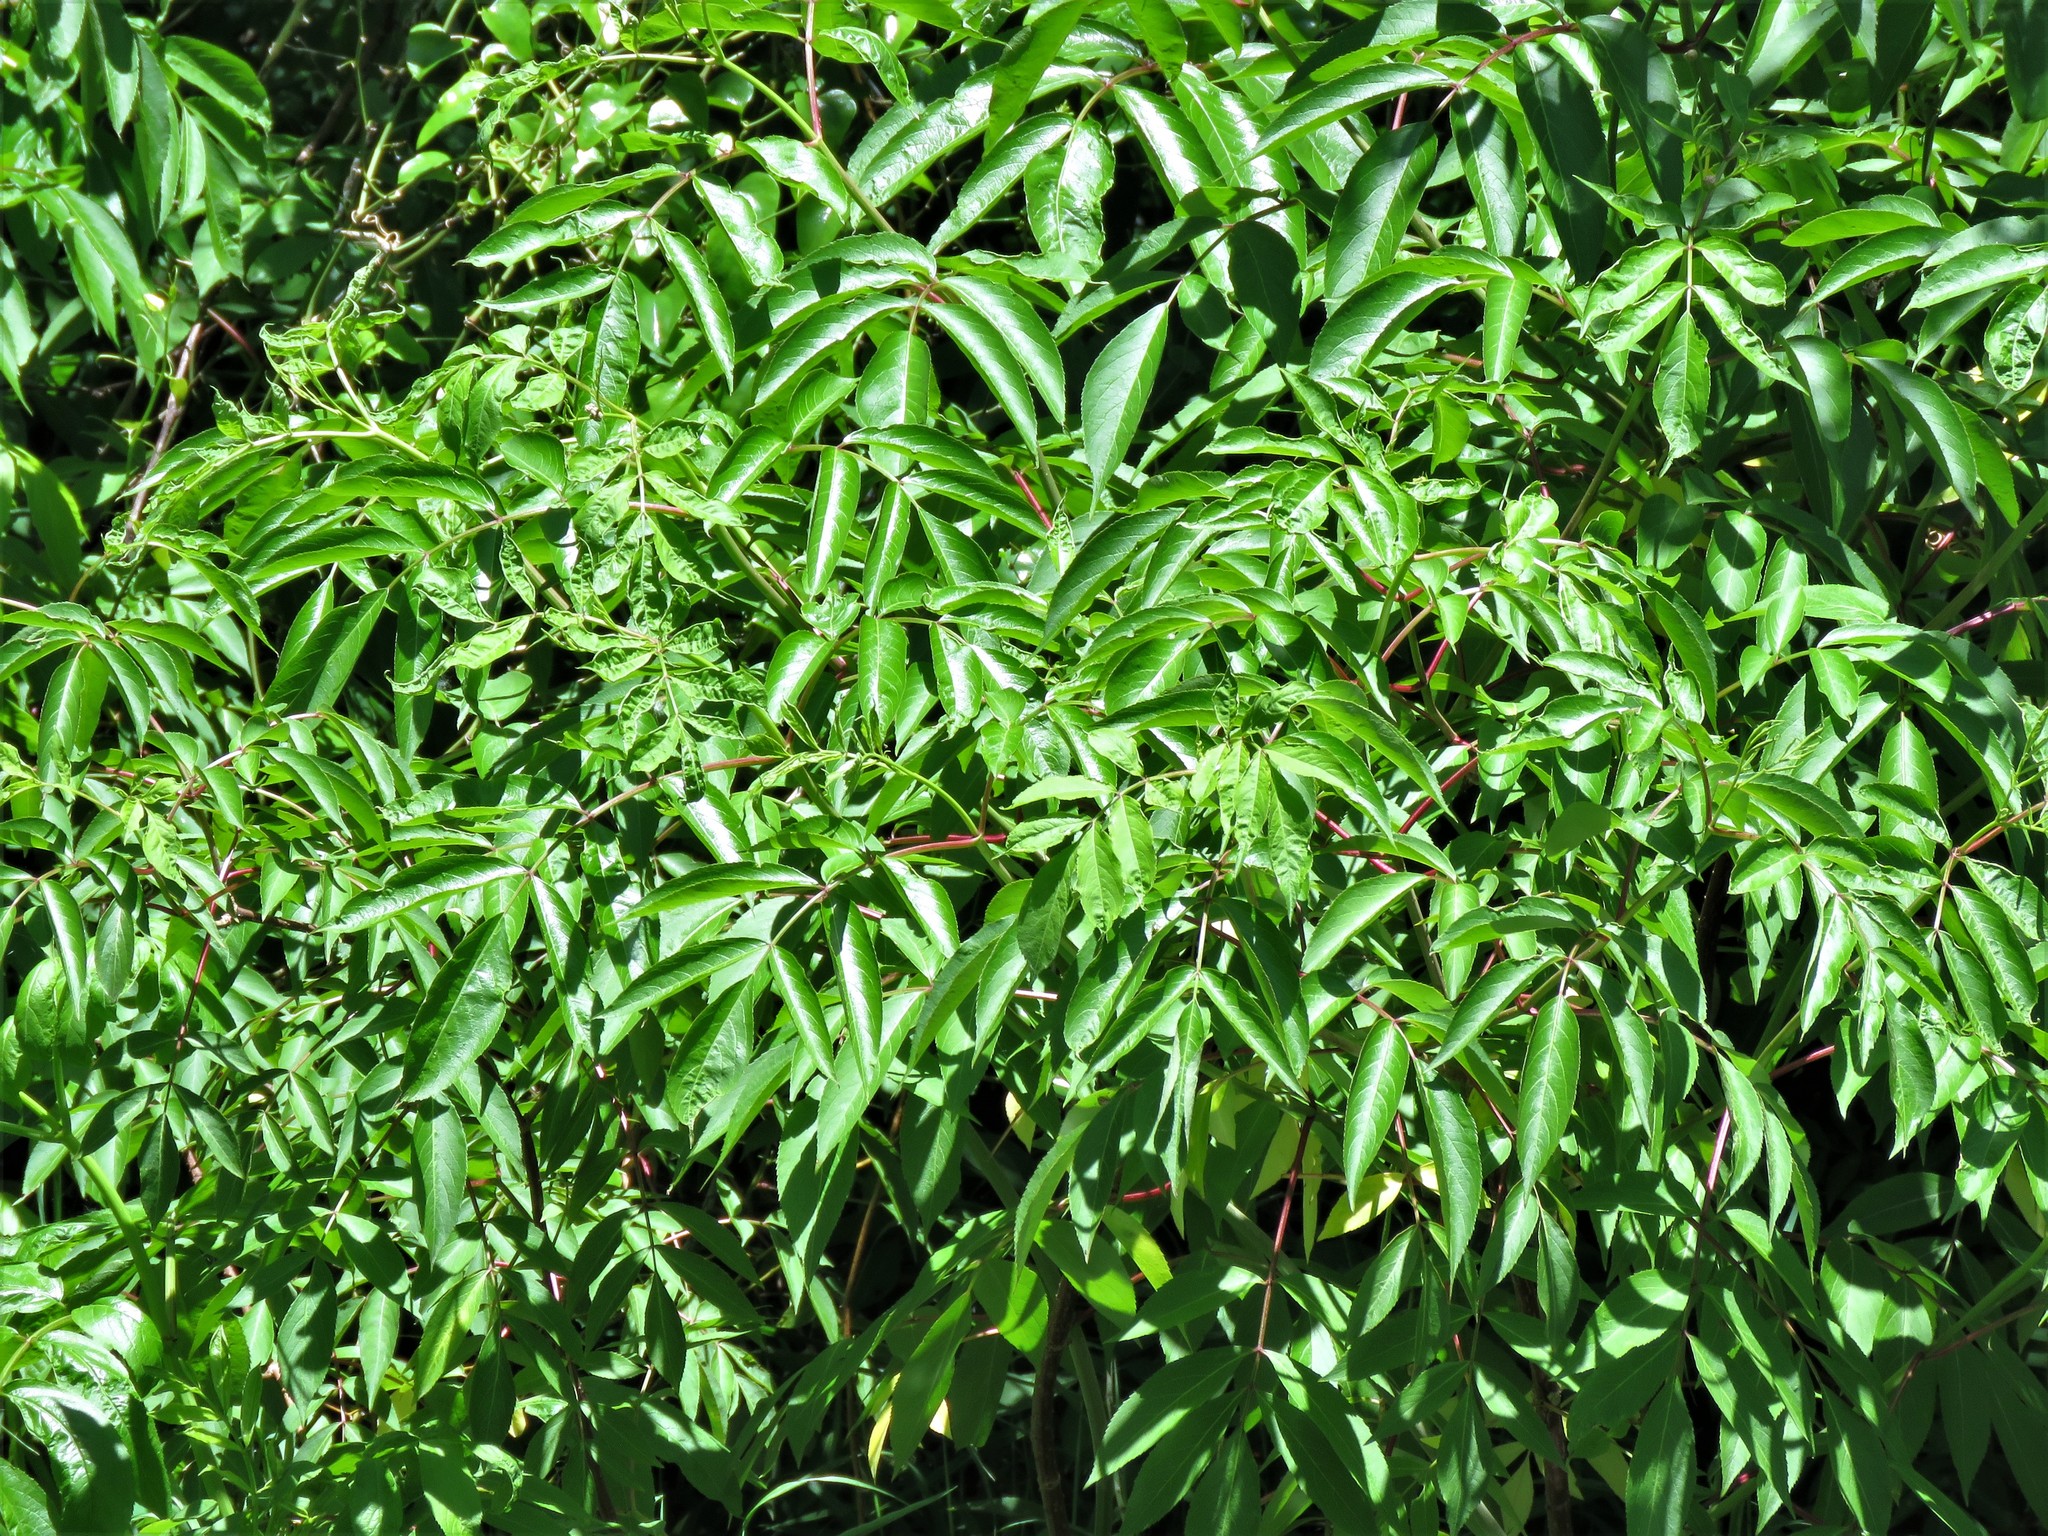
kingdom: Plantae
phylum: Tracheophyta
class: Magnoliopsida
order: Dipsacales
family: Viburnaceae
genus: Sambucus
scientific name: Sambucus canadensis
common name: American elder
